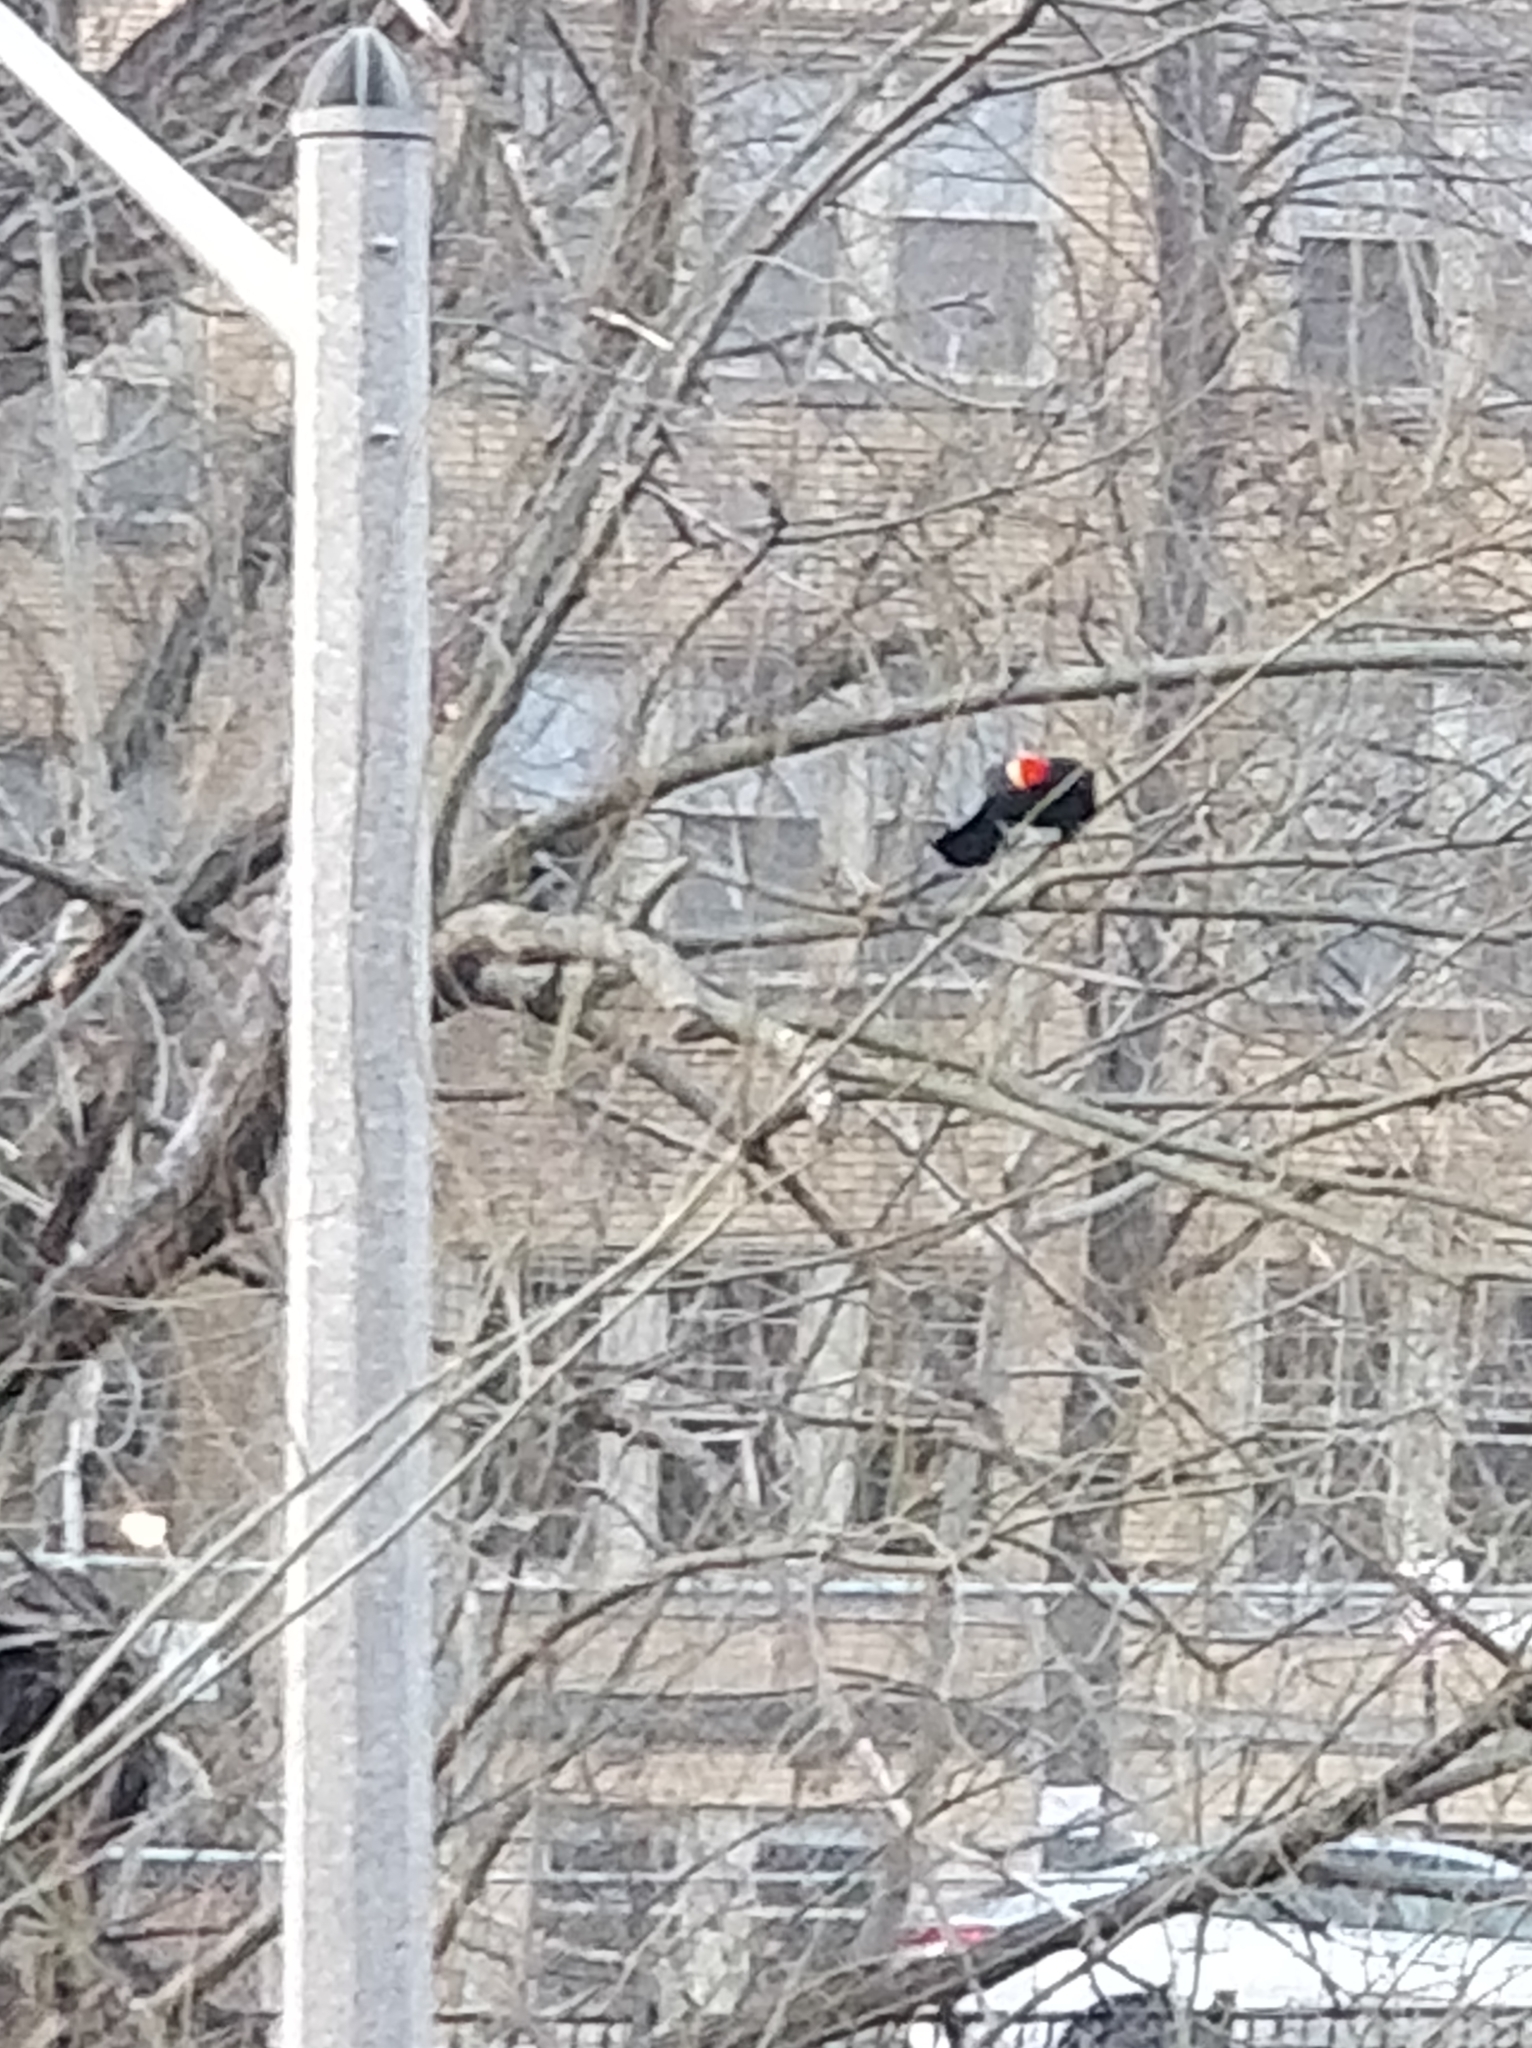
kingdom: Animalia
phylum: Chordata
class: Aves
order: Passeriformes
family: Icteridae
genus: Agelaius
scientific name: Agelaius phoeniceus
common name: Red-winged blackbird
